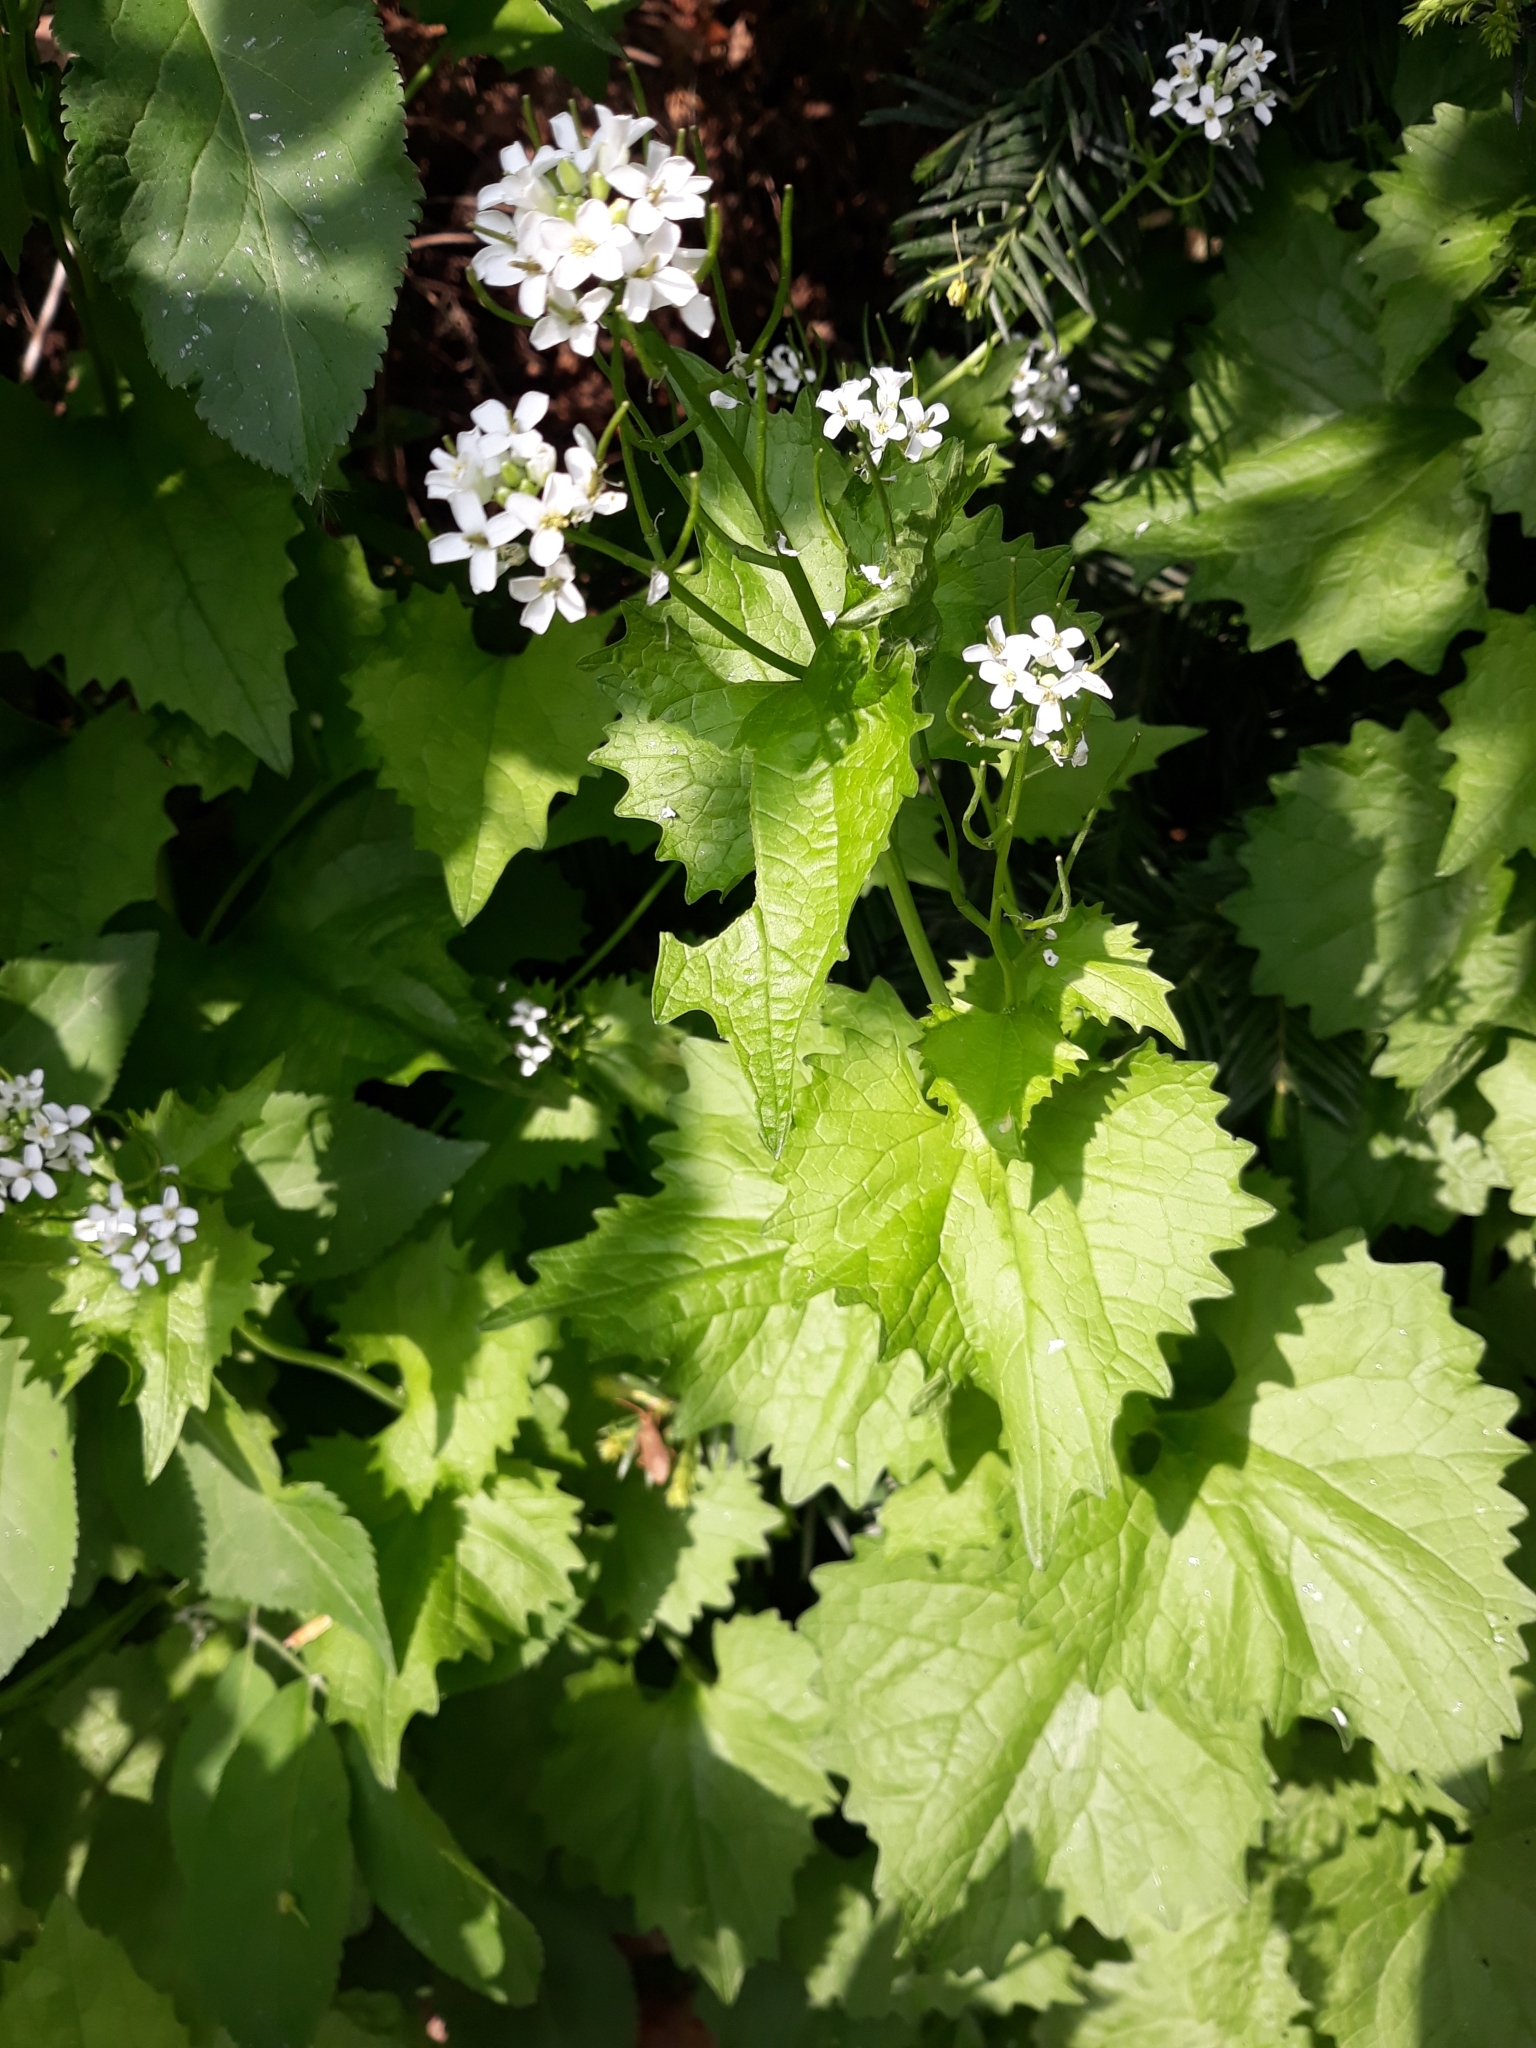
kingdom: Plantae
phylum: Tracheophyta
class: Magnoliopsida
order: Brassicales
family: Brassicaceae
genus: Alliaria
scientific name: Alliaria petiolata
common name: Garlic mustard
